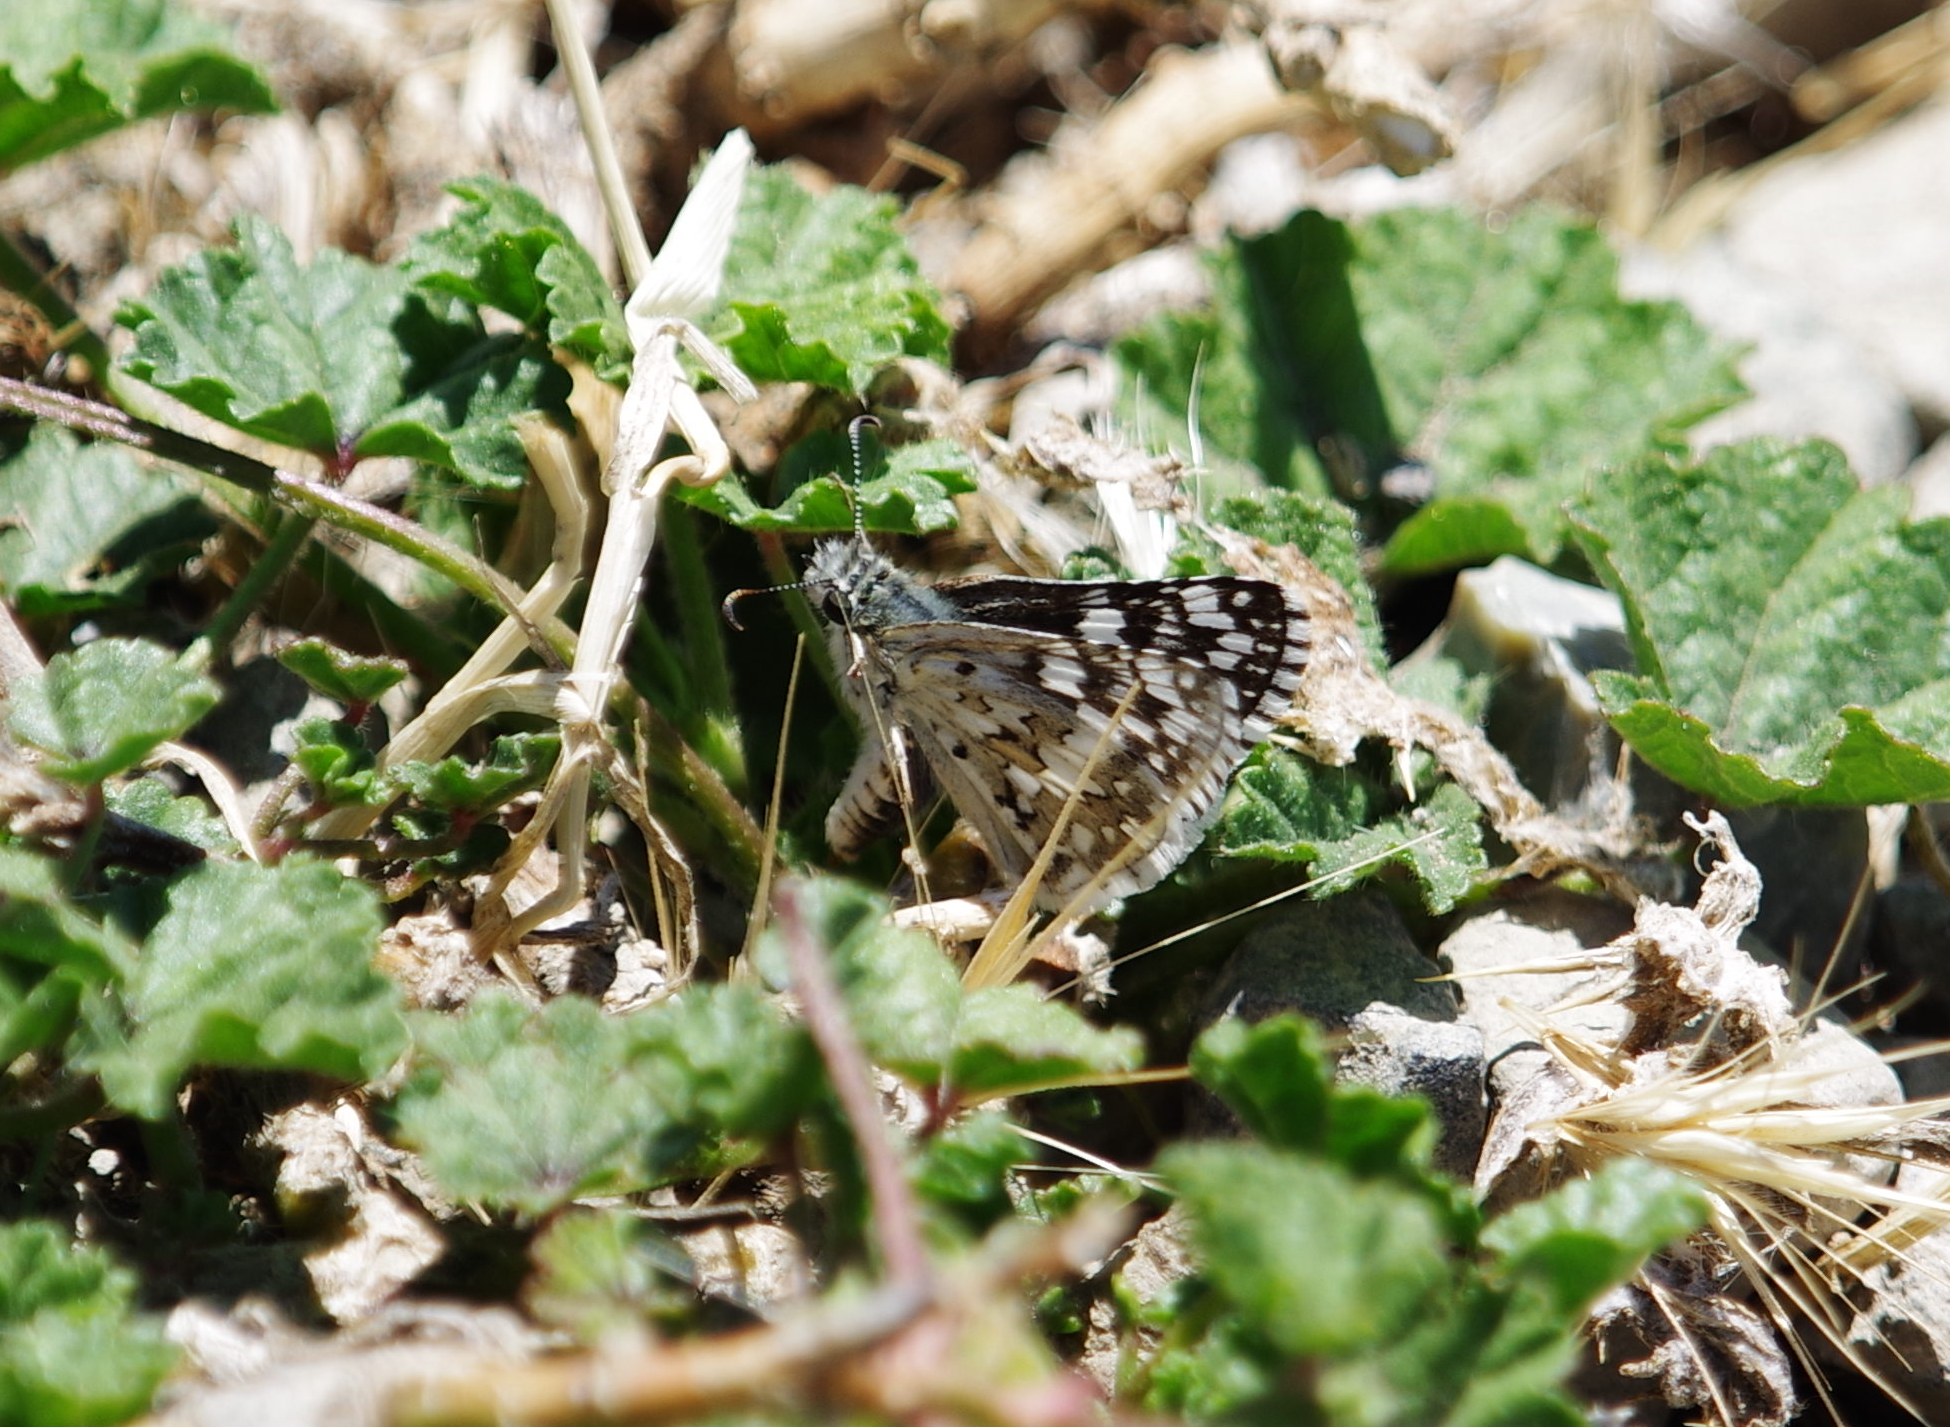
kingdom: Animalia
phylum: Arthropoda
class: Insecta
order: Lepidoptera
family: Hesperiidae
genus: Burnsius
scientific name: Burnsius communis
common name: Common checkered-skipper
